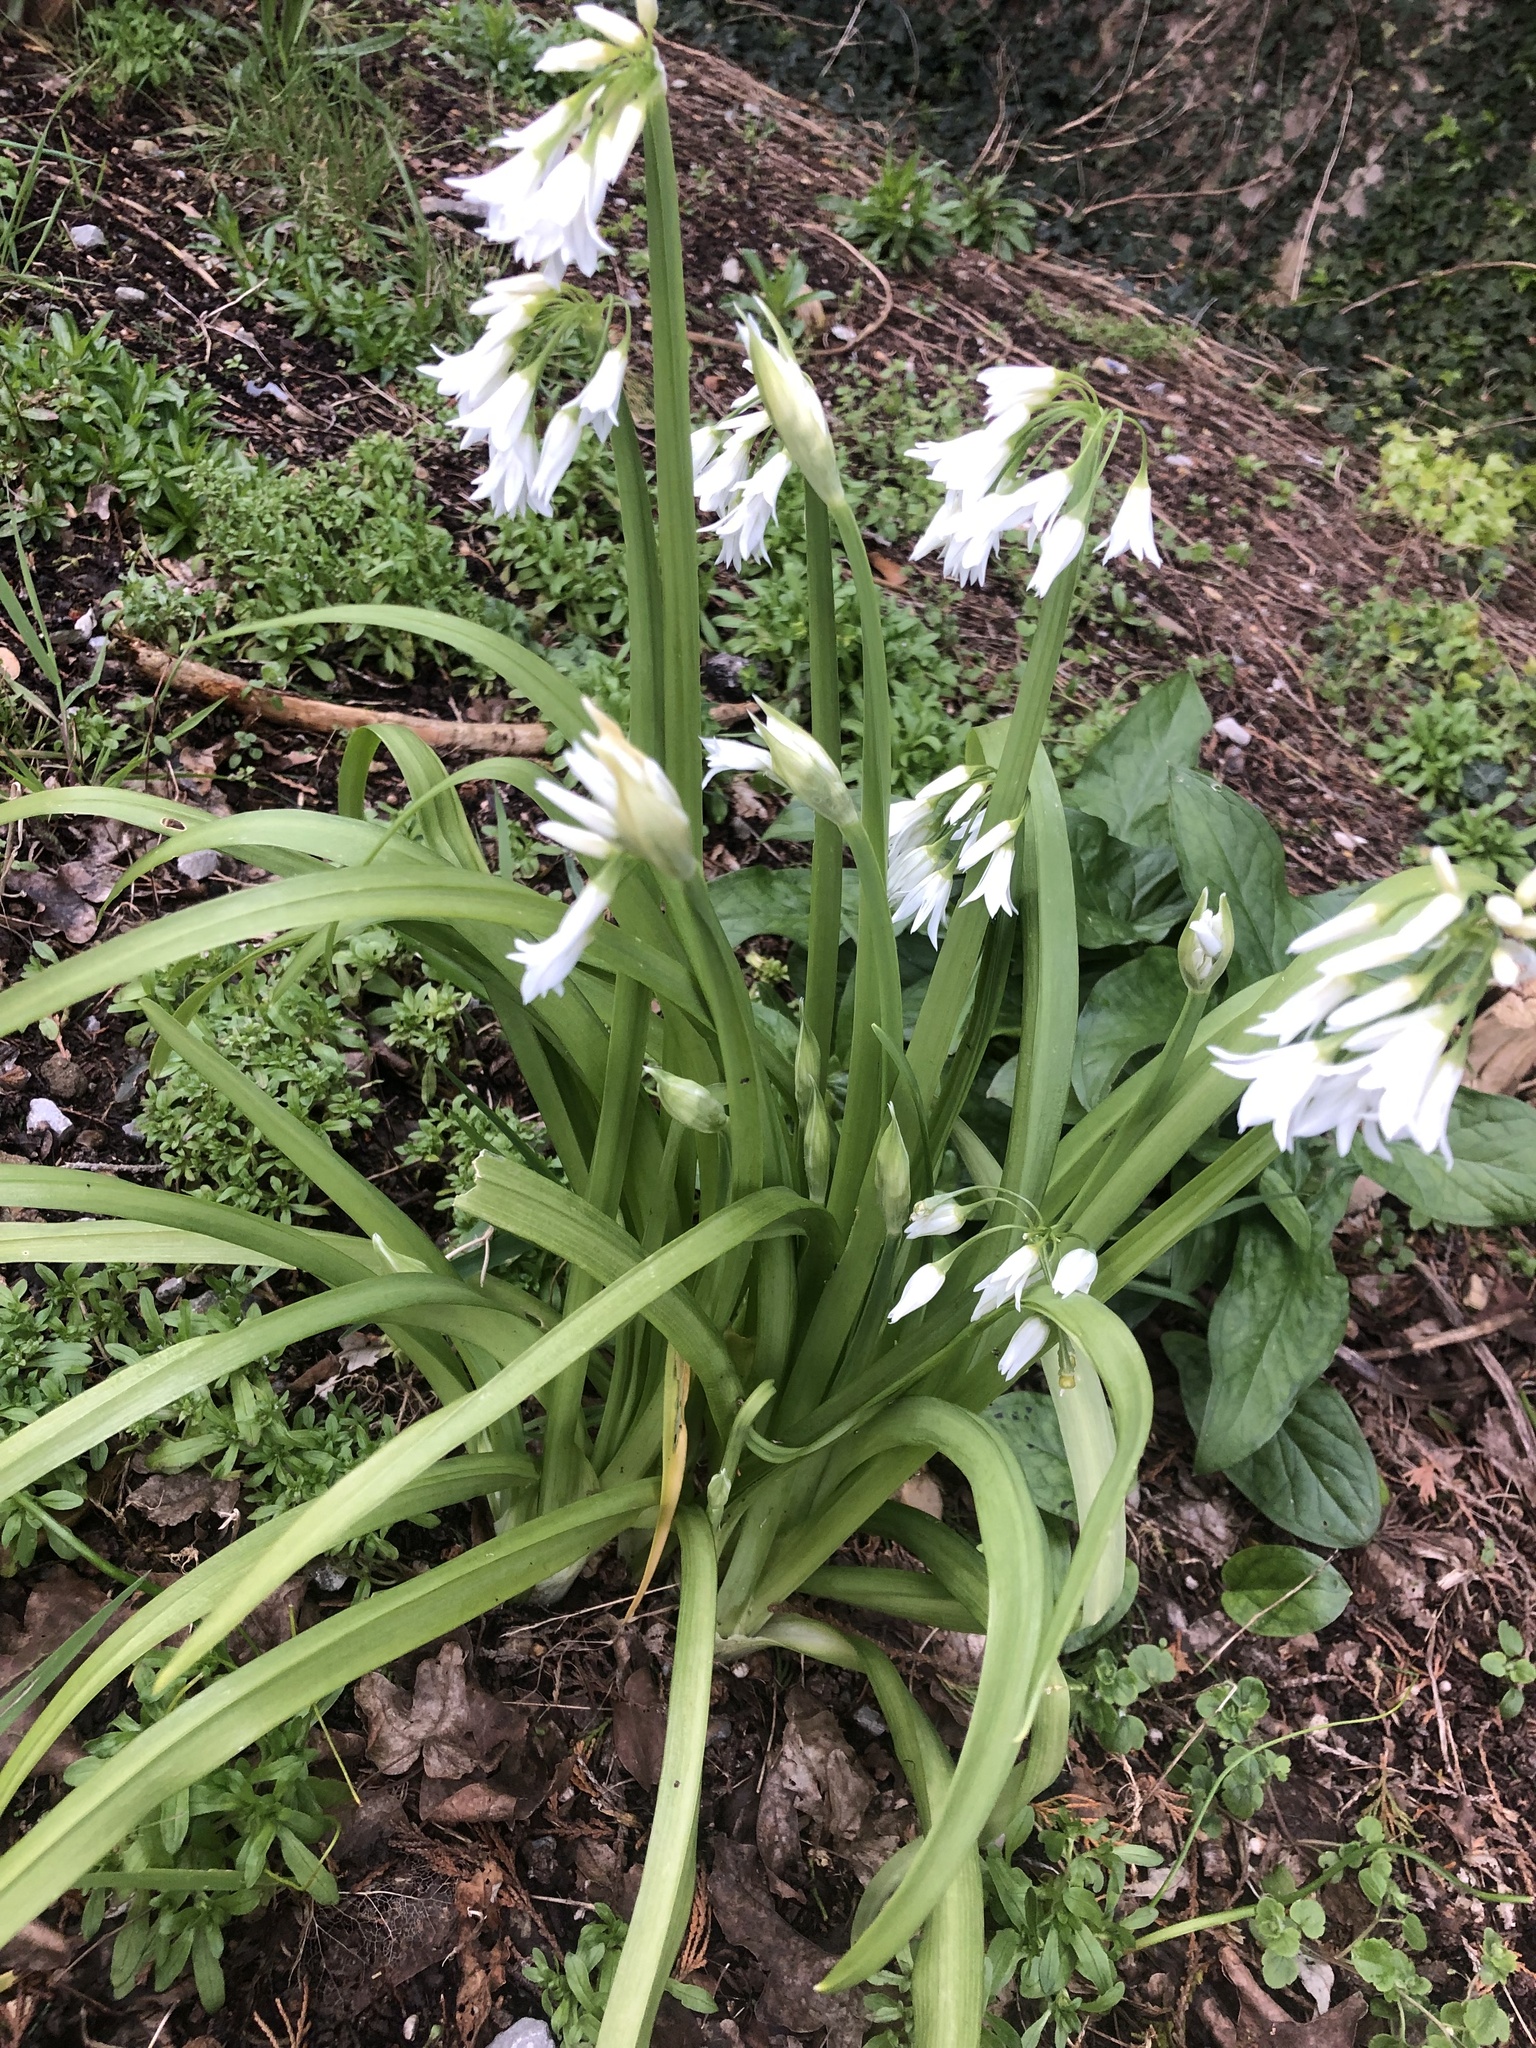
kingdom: Plantae
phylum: Tracheophyta
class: Liliopsida
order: Asparagales
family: Amaryllidaceae
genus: Allium
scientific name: Allium triquetrum
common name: Three-cornered garlic
